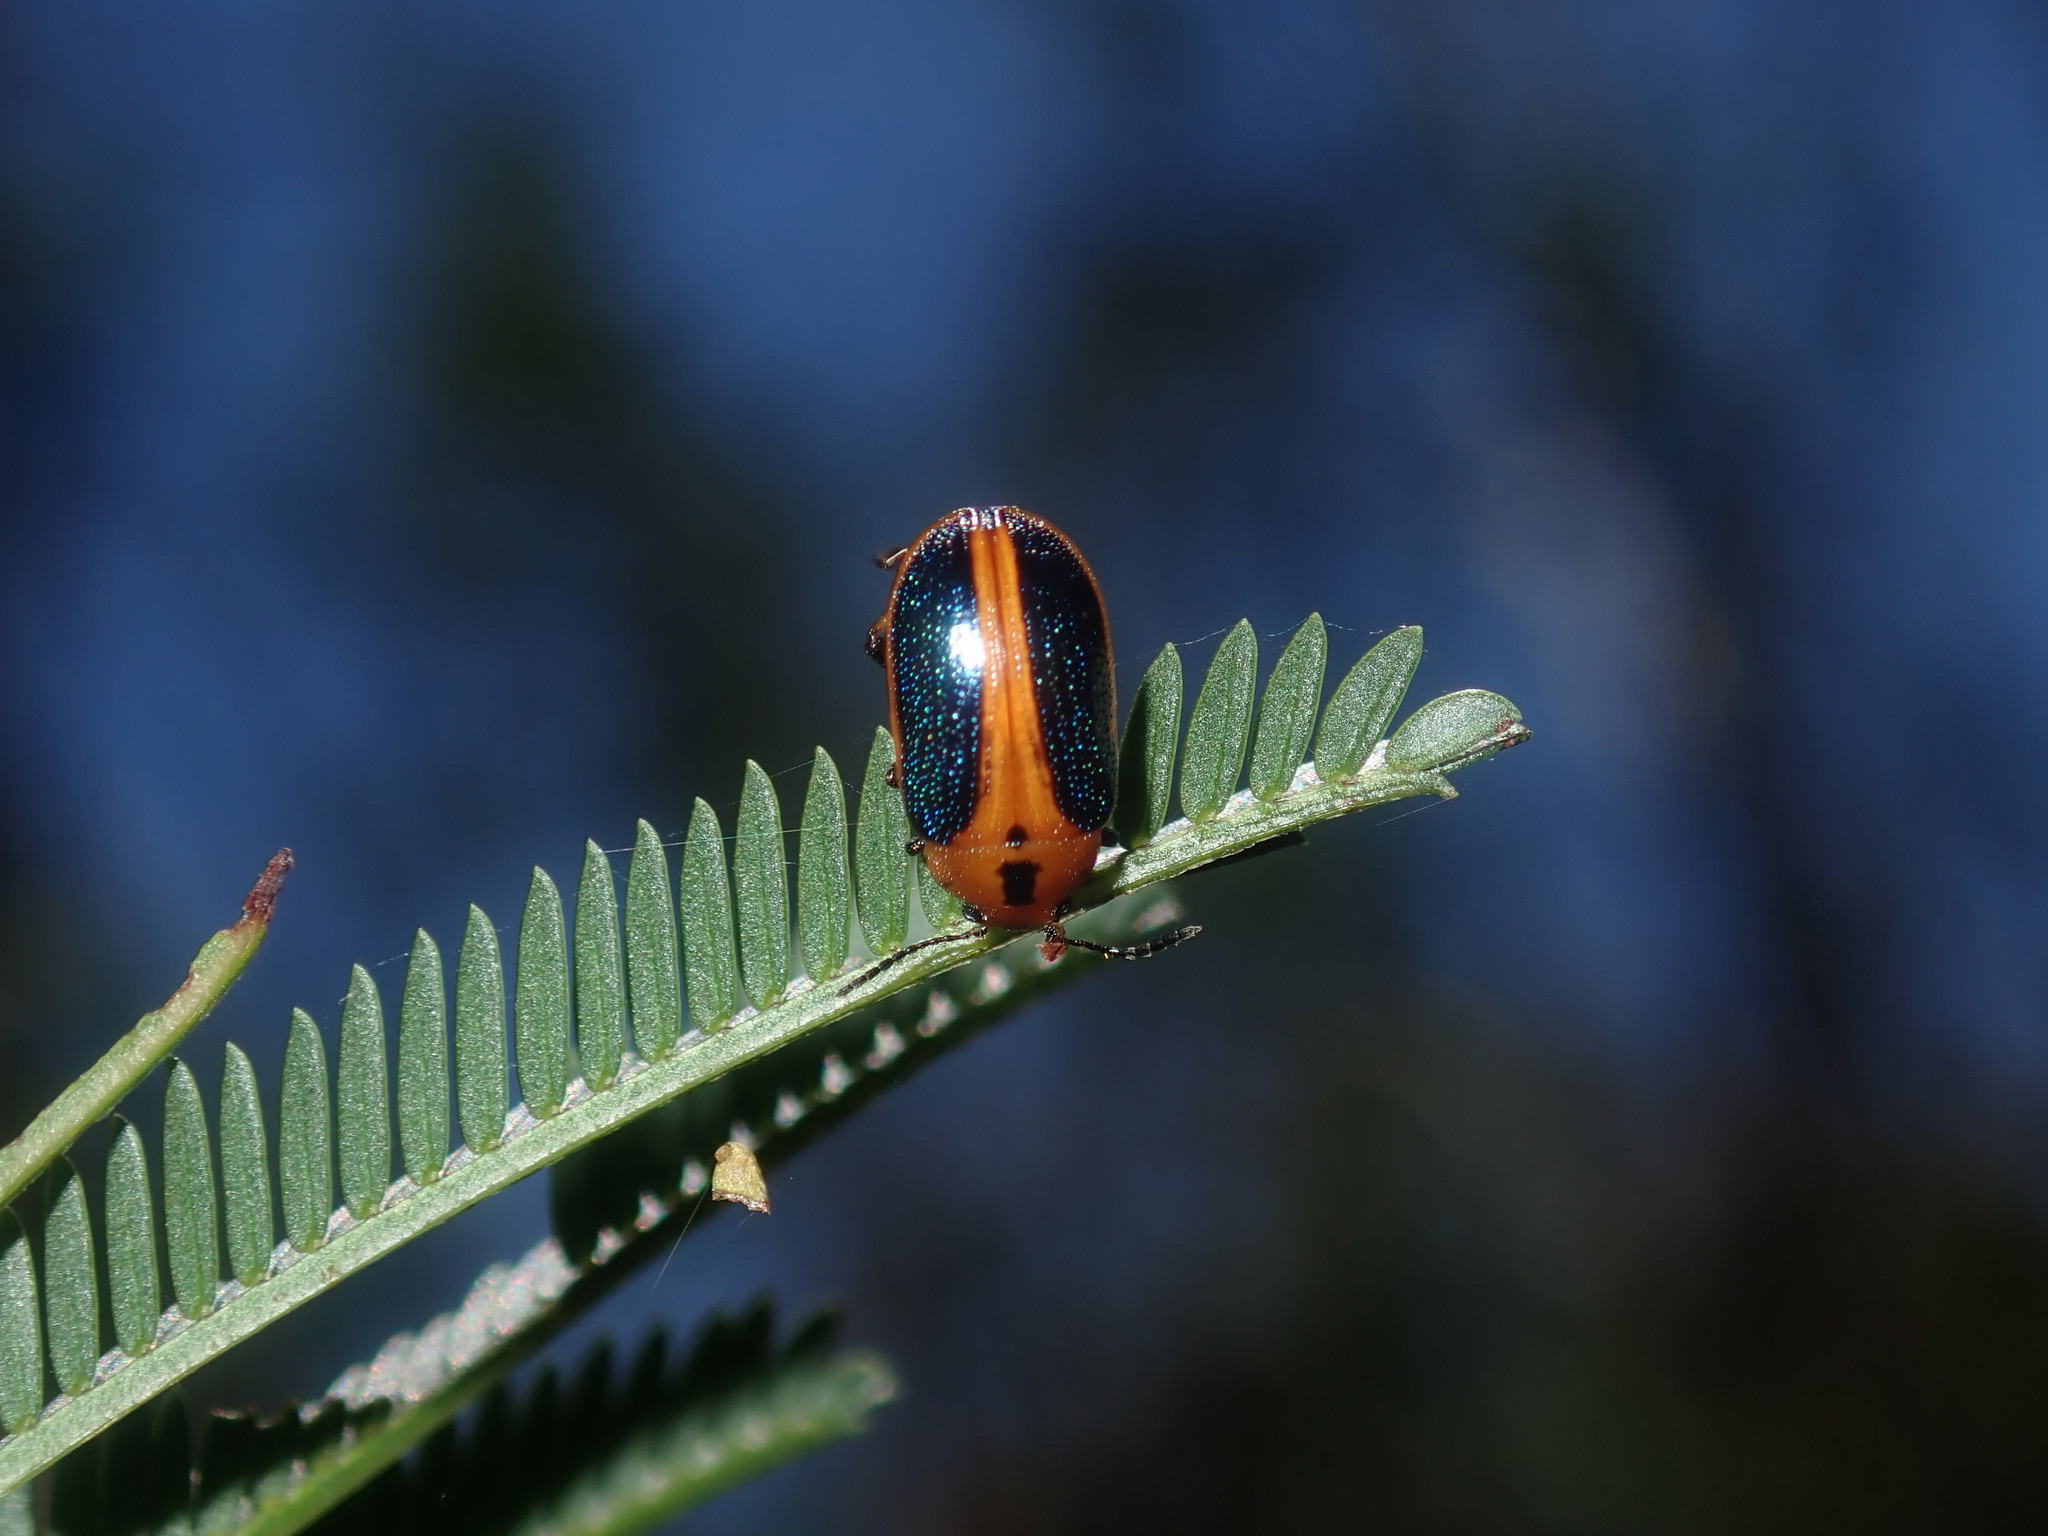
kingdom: Animalia
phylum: Arthropoda
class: Insecta
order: Coleoptera
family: Chrysomelidae
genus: Calomela
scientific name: Calomela
